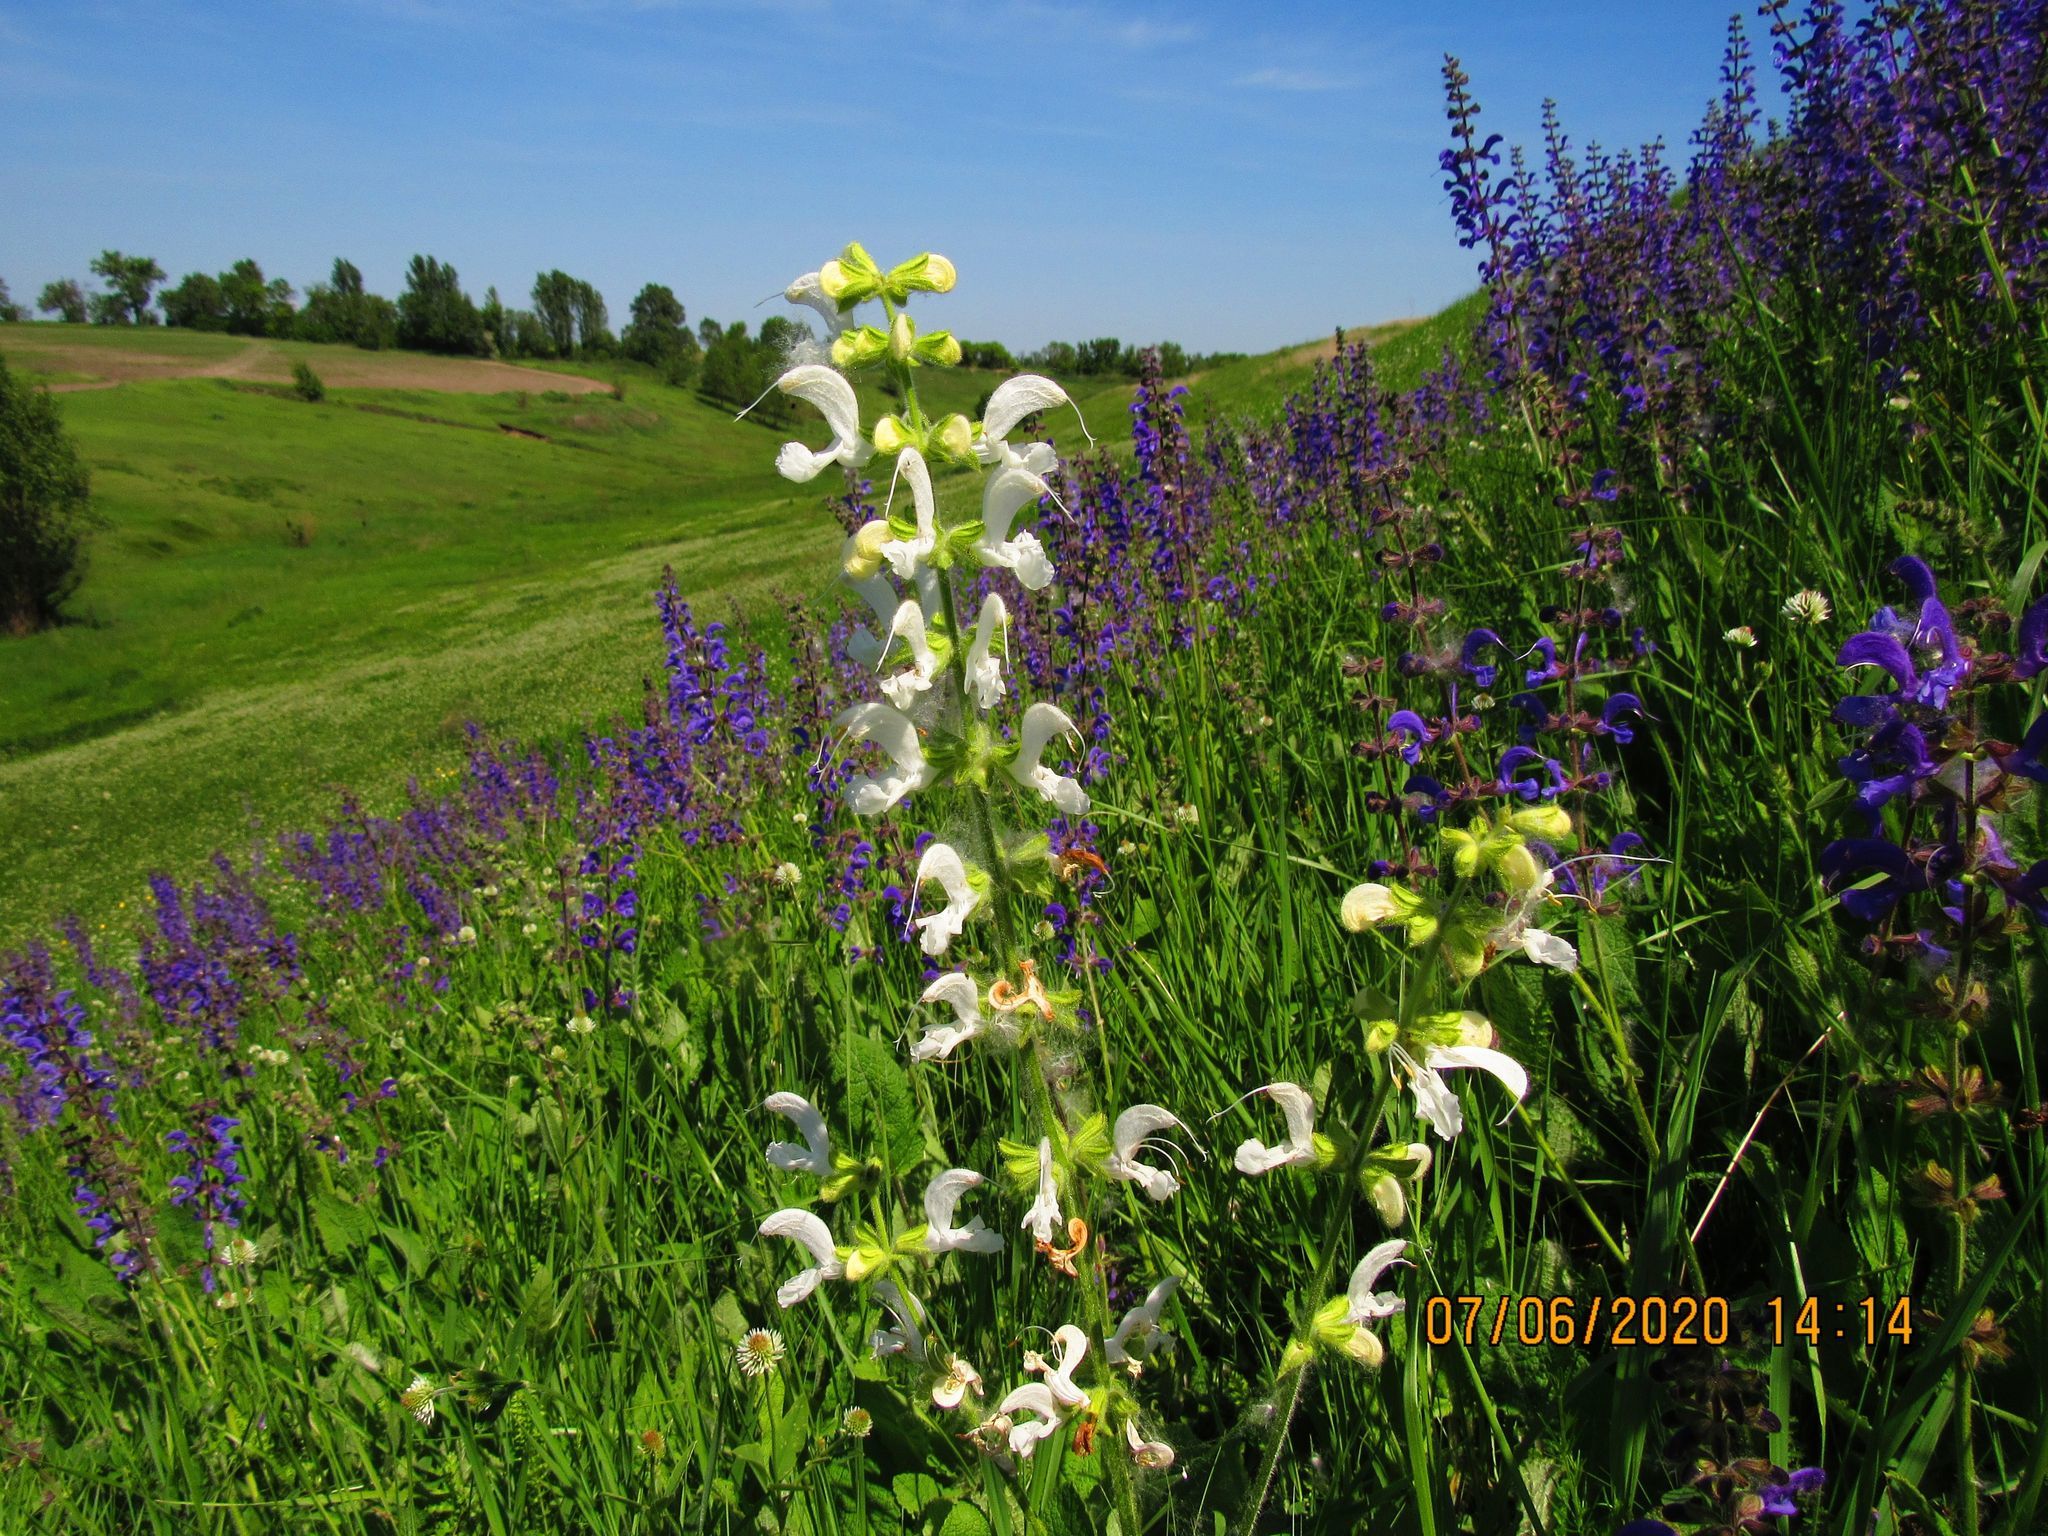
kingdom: Plantae
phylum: Tracheophyta
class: Magnoliopsida
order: Lamiales
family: Lamiaceae
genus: Salvia
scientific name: Salvia pratensis
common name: Meadow sage
